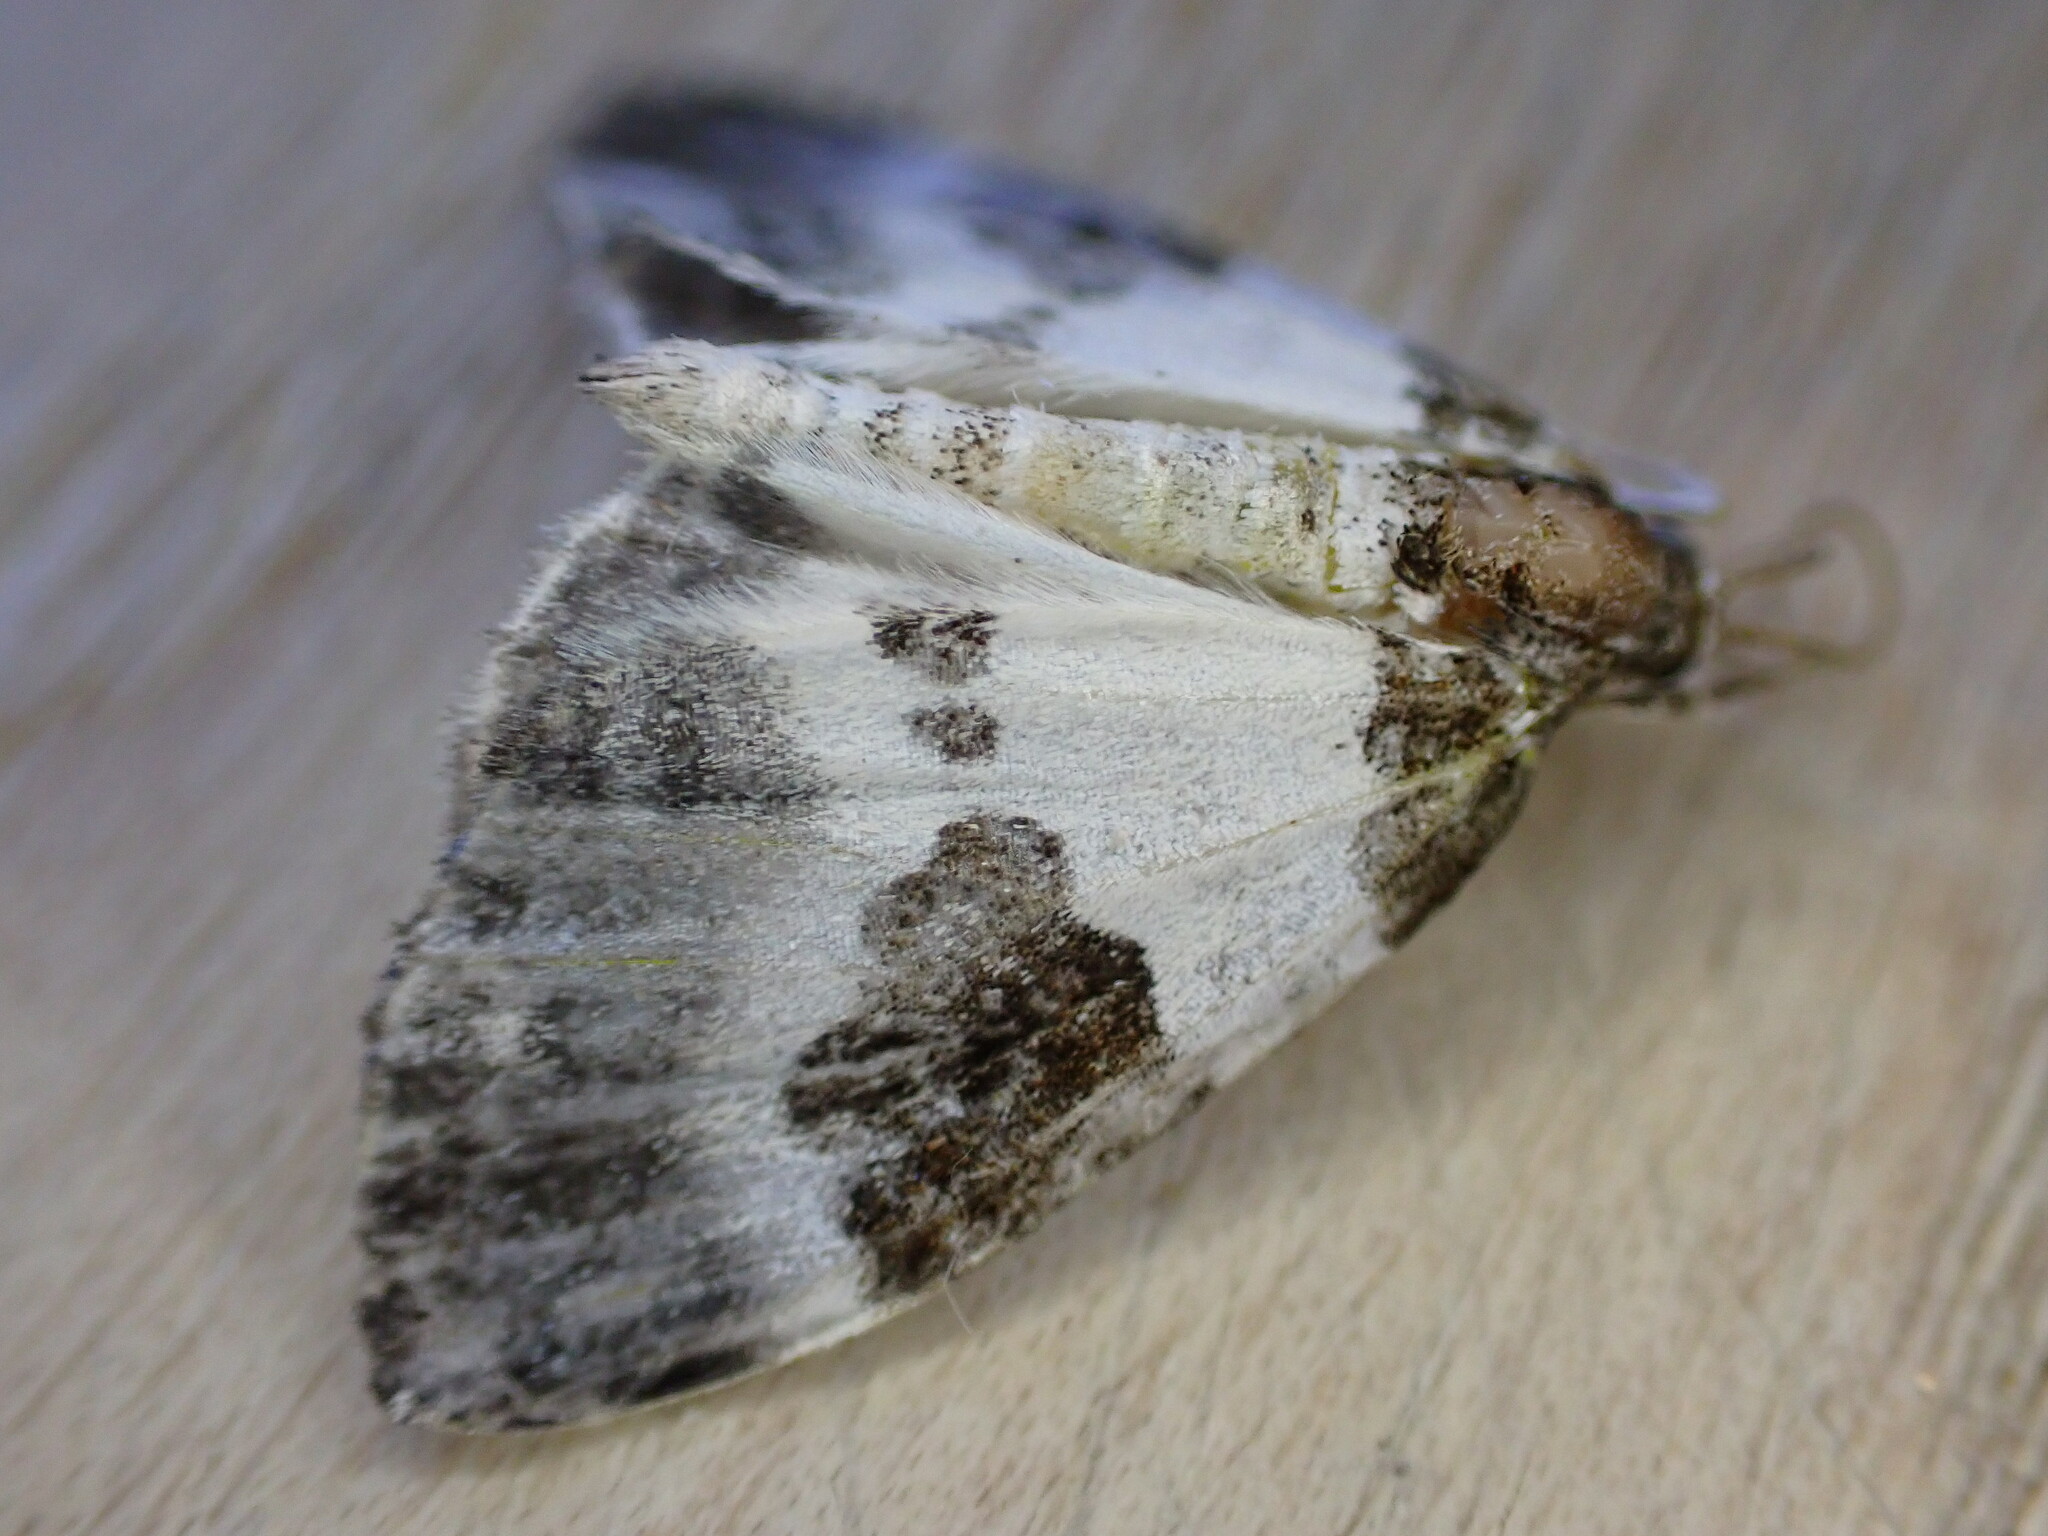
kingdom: Animalia
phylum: Arthropoda
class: Insecta
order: Lepidoptera
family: Geometridae
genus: Plemyria
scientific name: Plemyria rubiginata
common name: Blue-bordered carpet
